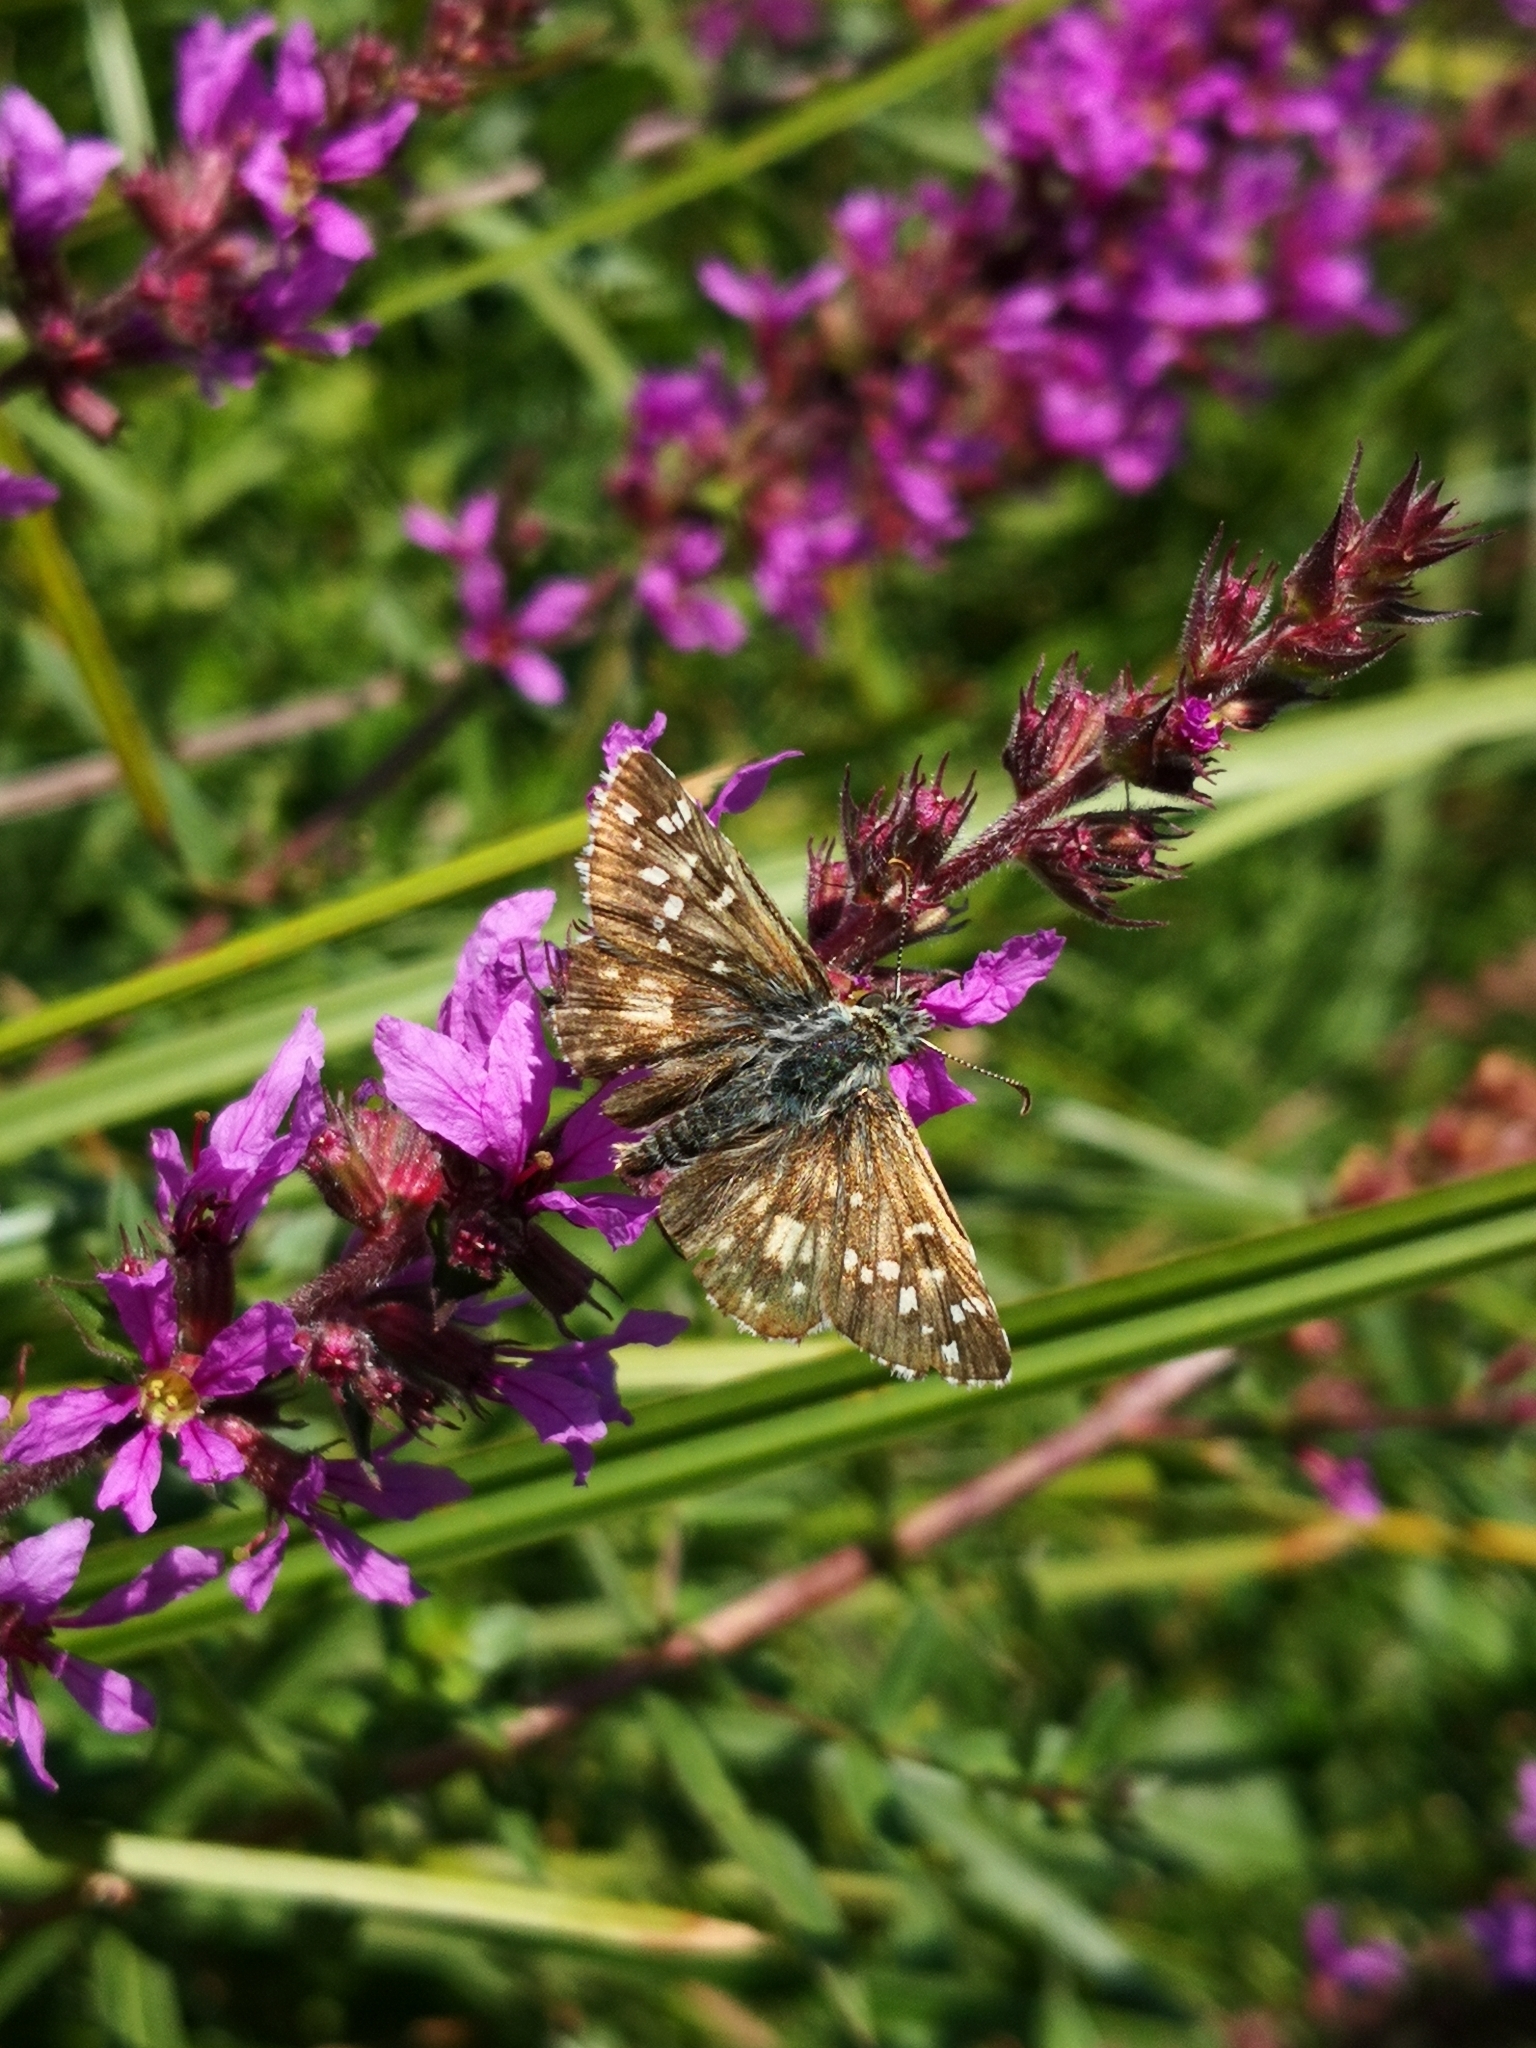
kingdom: Animalia
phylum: Arthropoda
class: Insecta
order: Lepidoptera
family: Hesperiidae
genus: Pyrgus
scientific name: Pyrgus armoricanus
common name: Oberthür's grizzled skipper
